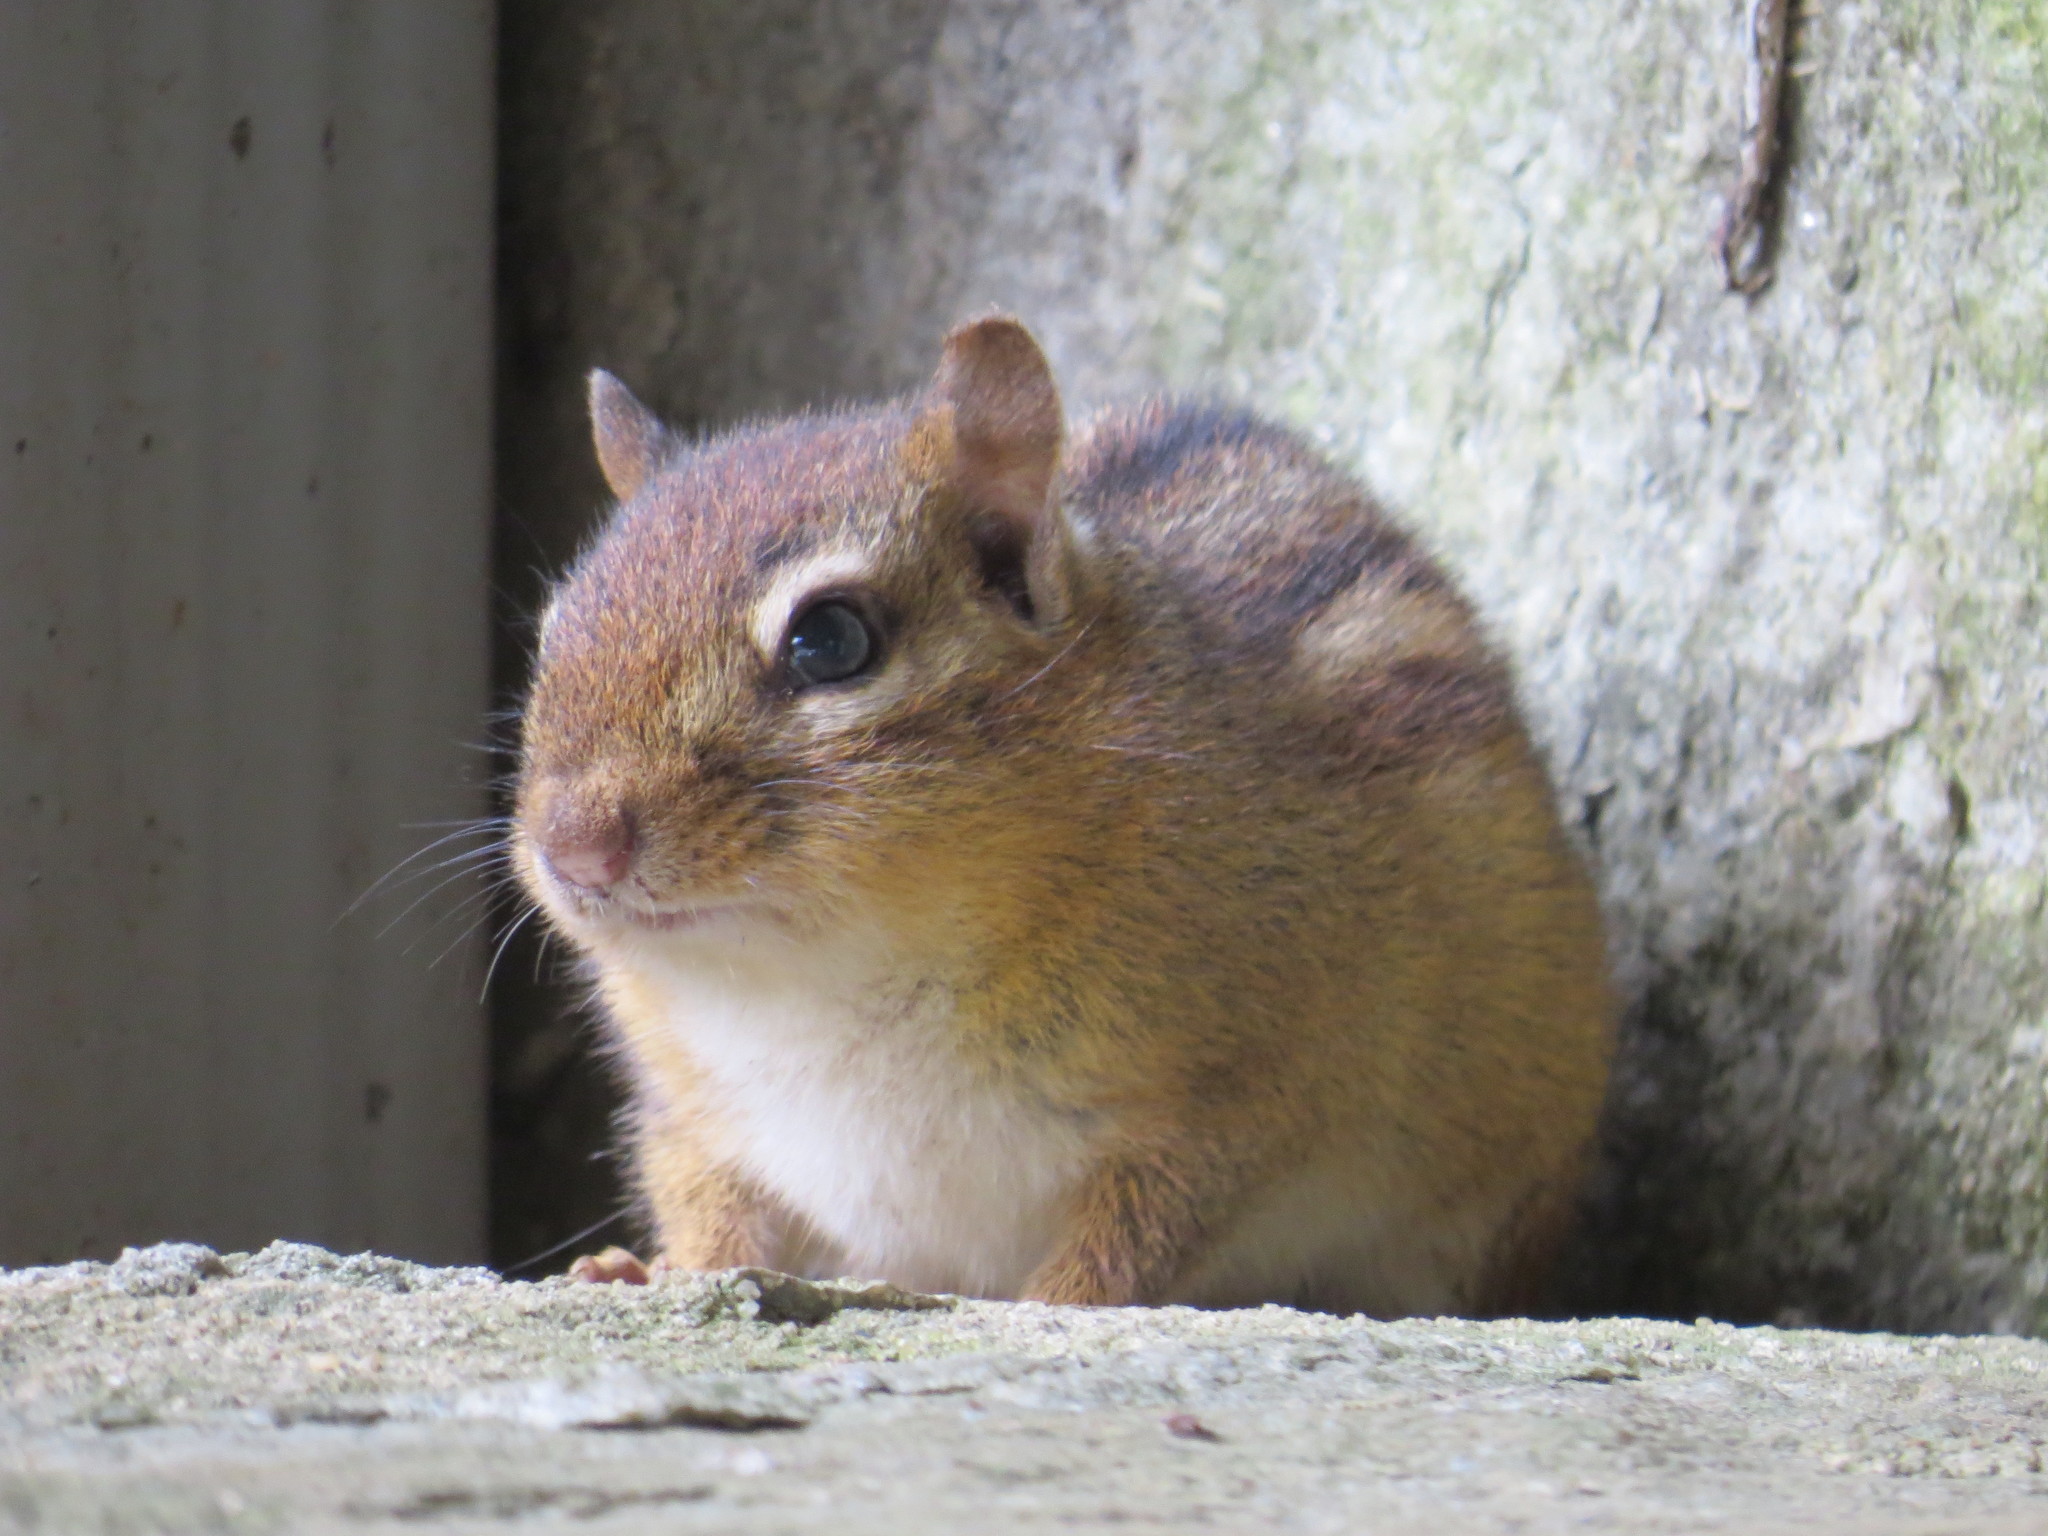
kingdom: Animalia
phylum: Chordata
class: Mammalia
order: Rodentia
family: Sciuridae
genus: Tamias
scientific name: Tamias striatus
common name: Eastern chipmunk
